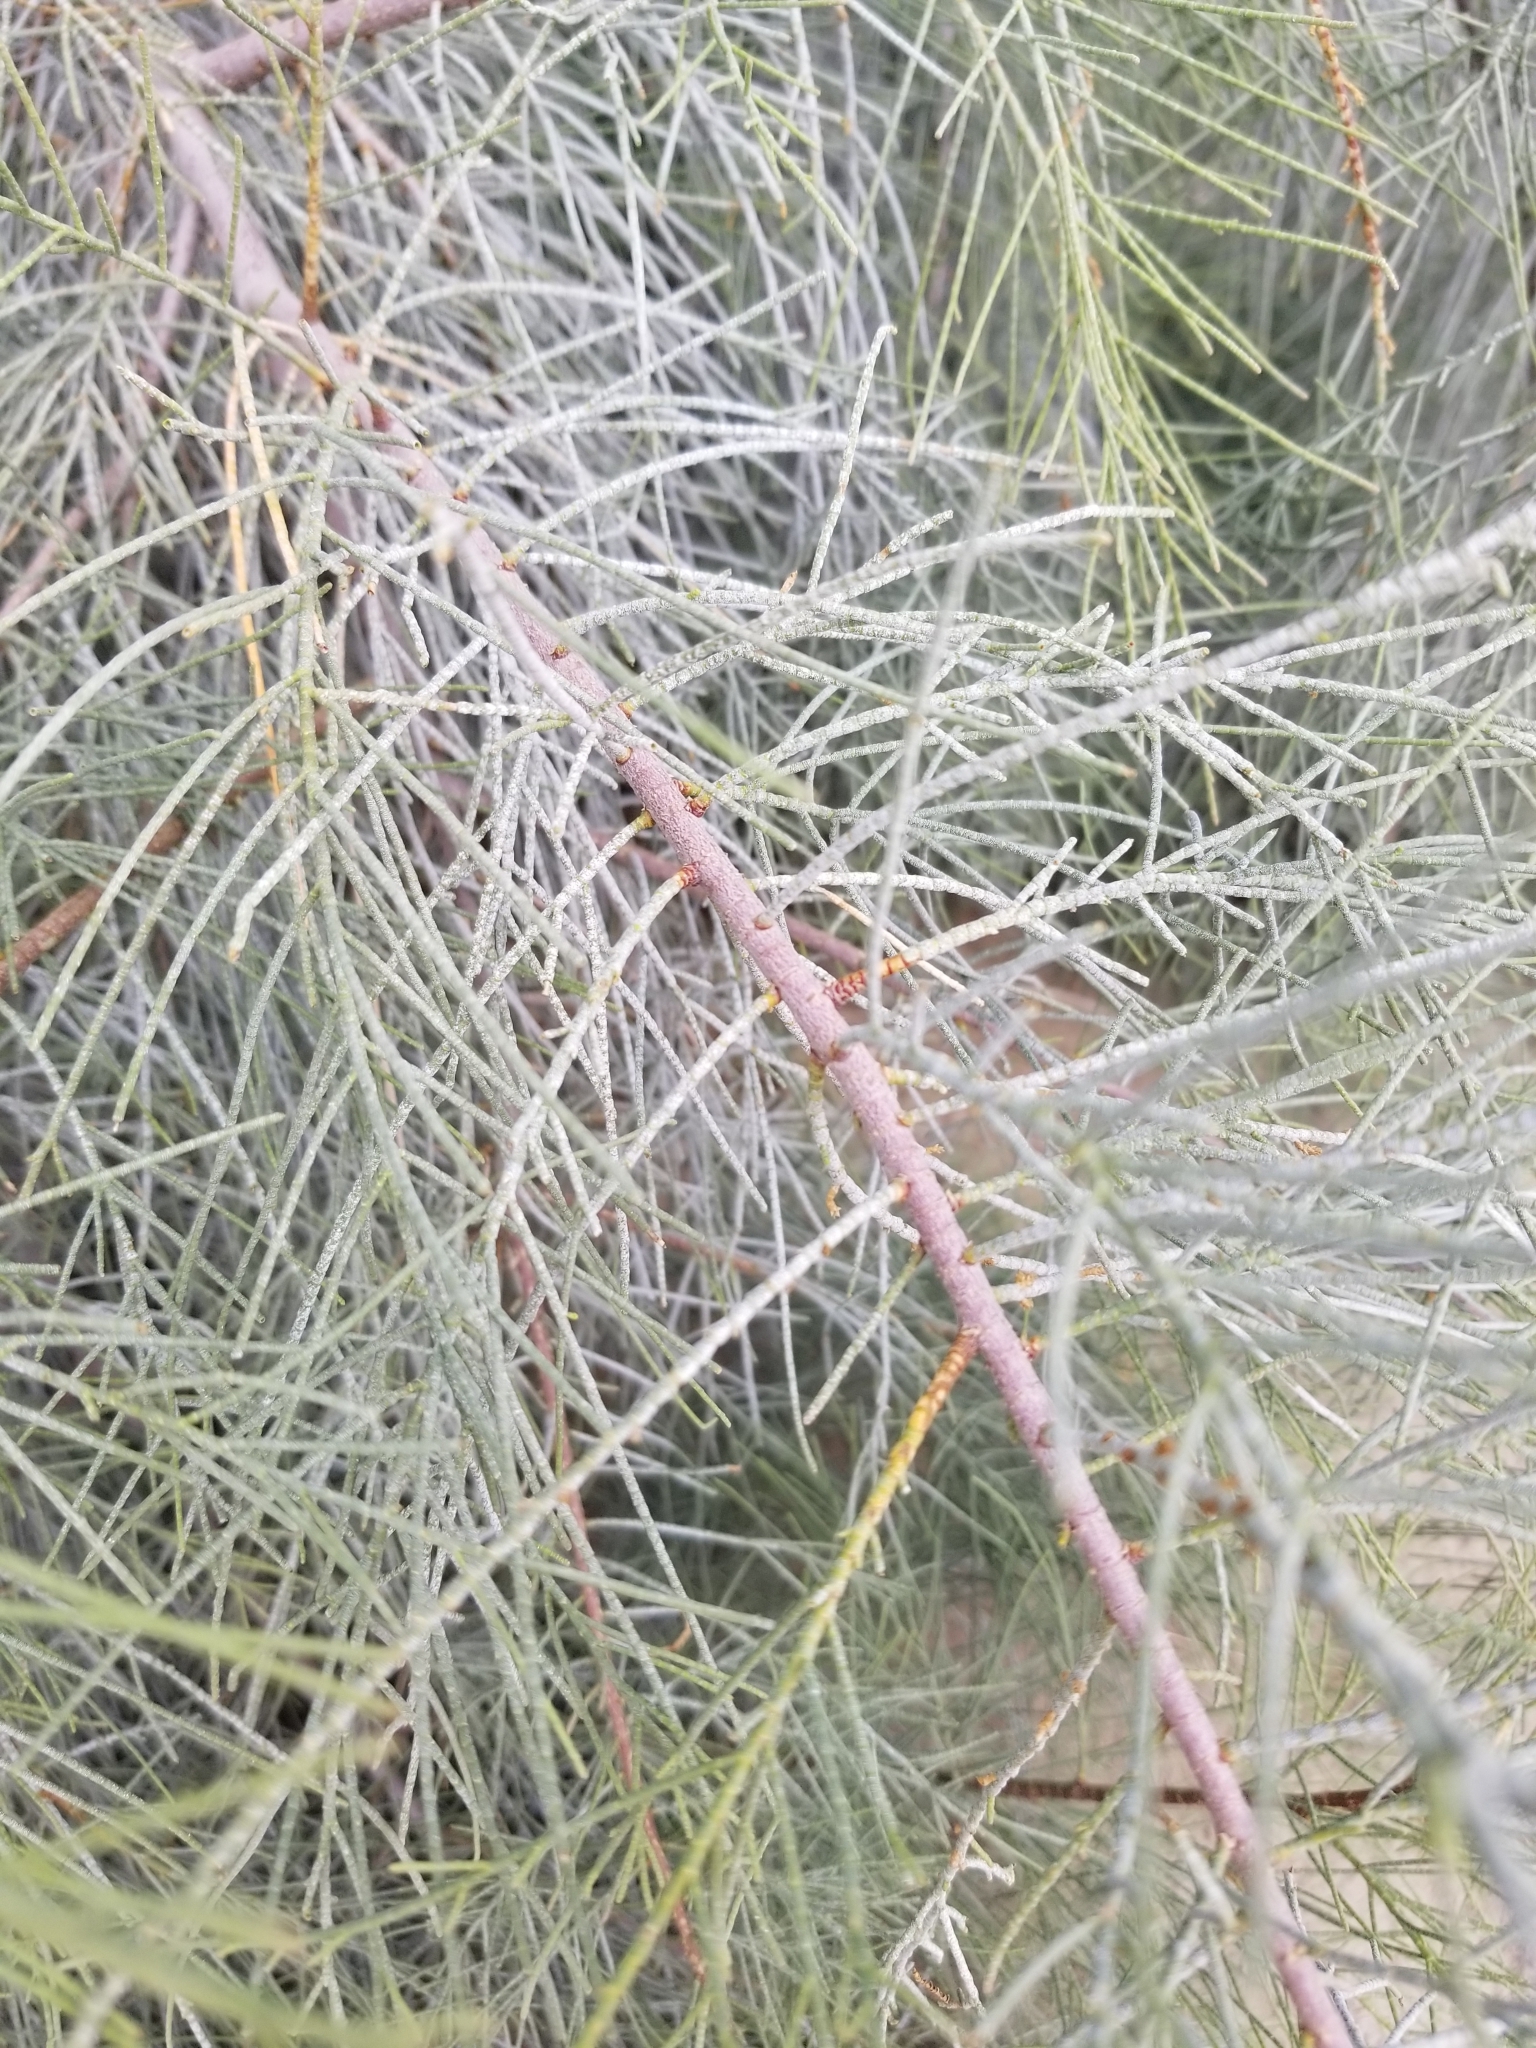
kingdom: Plantae
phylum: Tracheophyta
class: Magnoliopsida
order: Caryophyllales
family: Tamaricaceae
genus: Tamarix
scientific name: Tamarix aphylla
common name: Athel tamarisk
